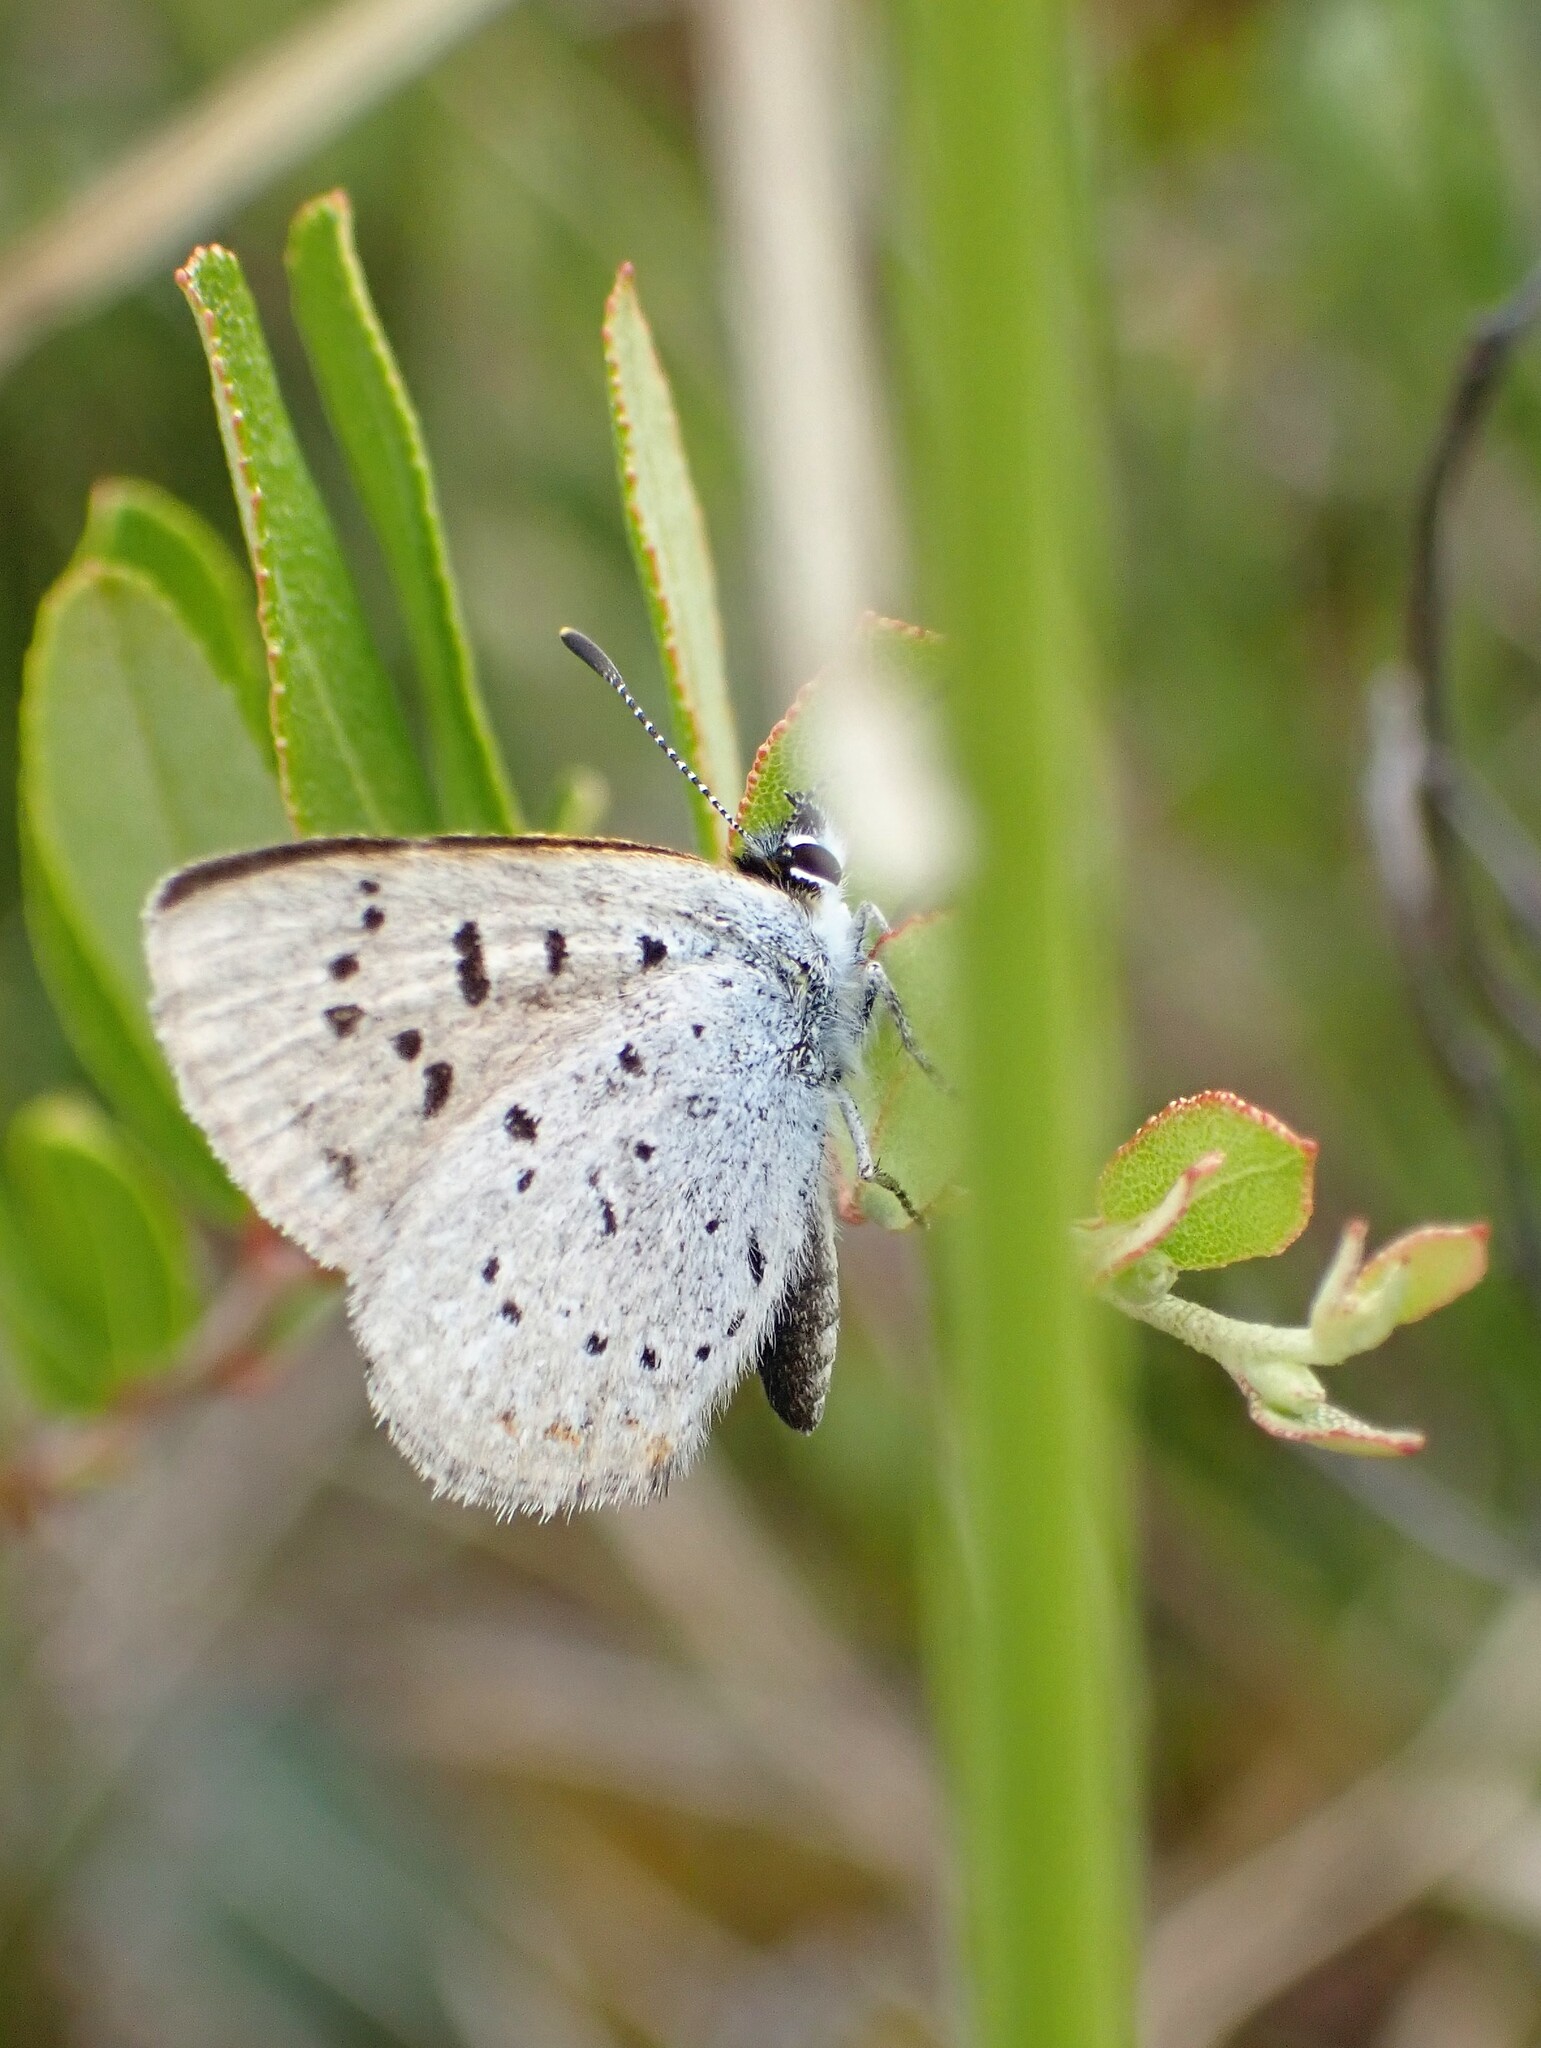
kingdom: Animalia
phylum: Arthropoda
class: Insecta
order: Lepidoptera
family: Lycaenidae
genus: Tharsalea
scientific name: Tharsalea epixanthe
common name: Bog copper
